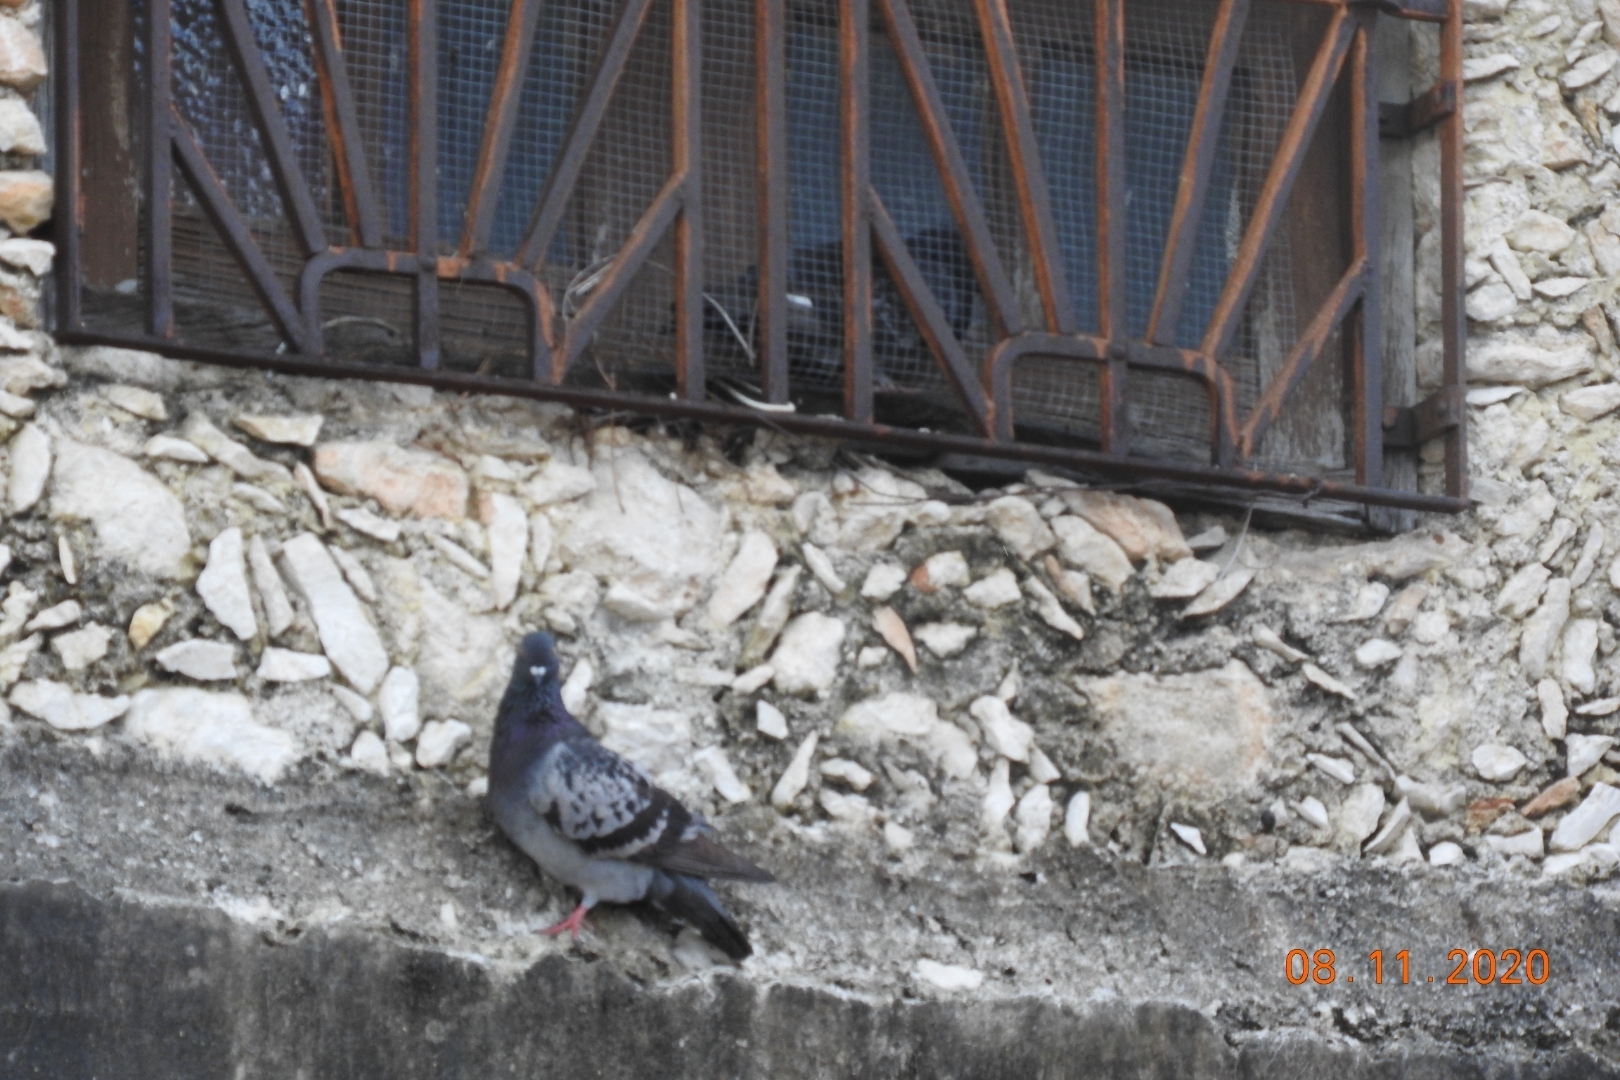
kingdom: Animalia
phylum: Chordata
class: Aves
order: Columbiformes
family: Columbidae
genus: Columba
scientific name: Columba livia
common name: Rock pigeon
